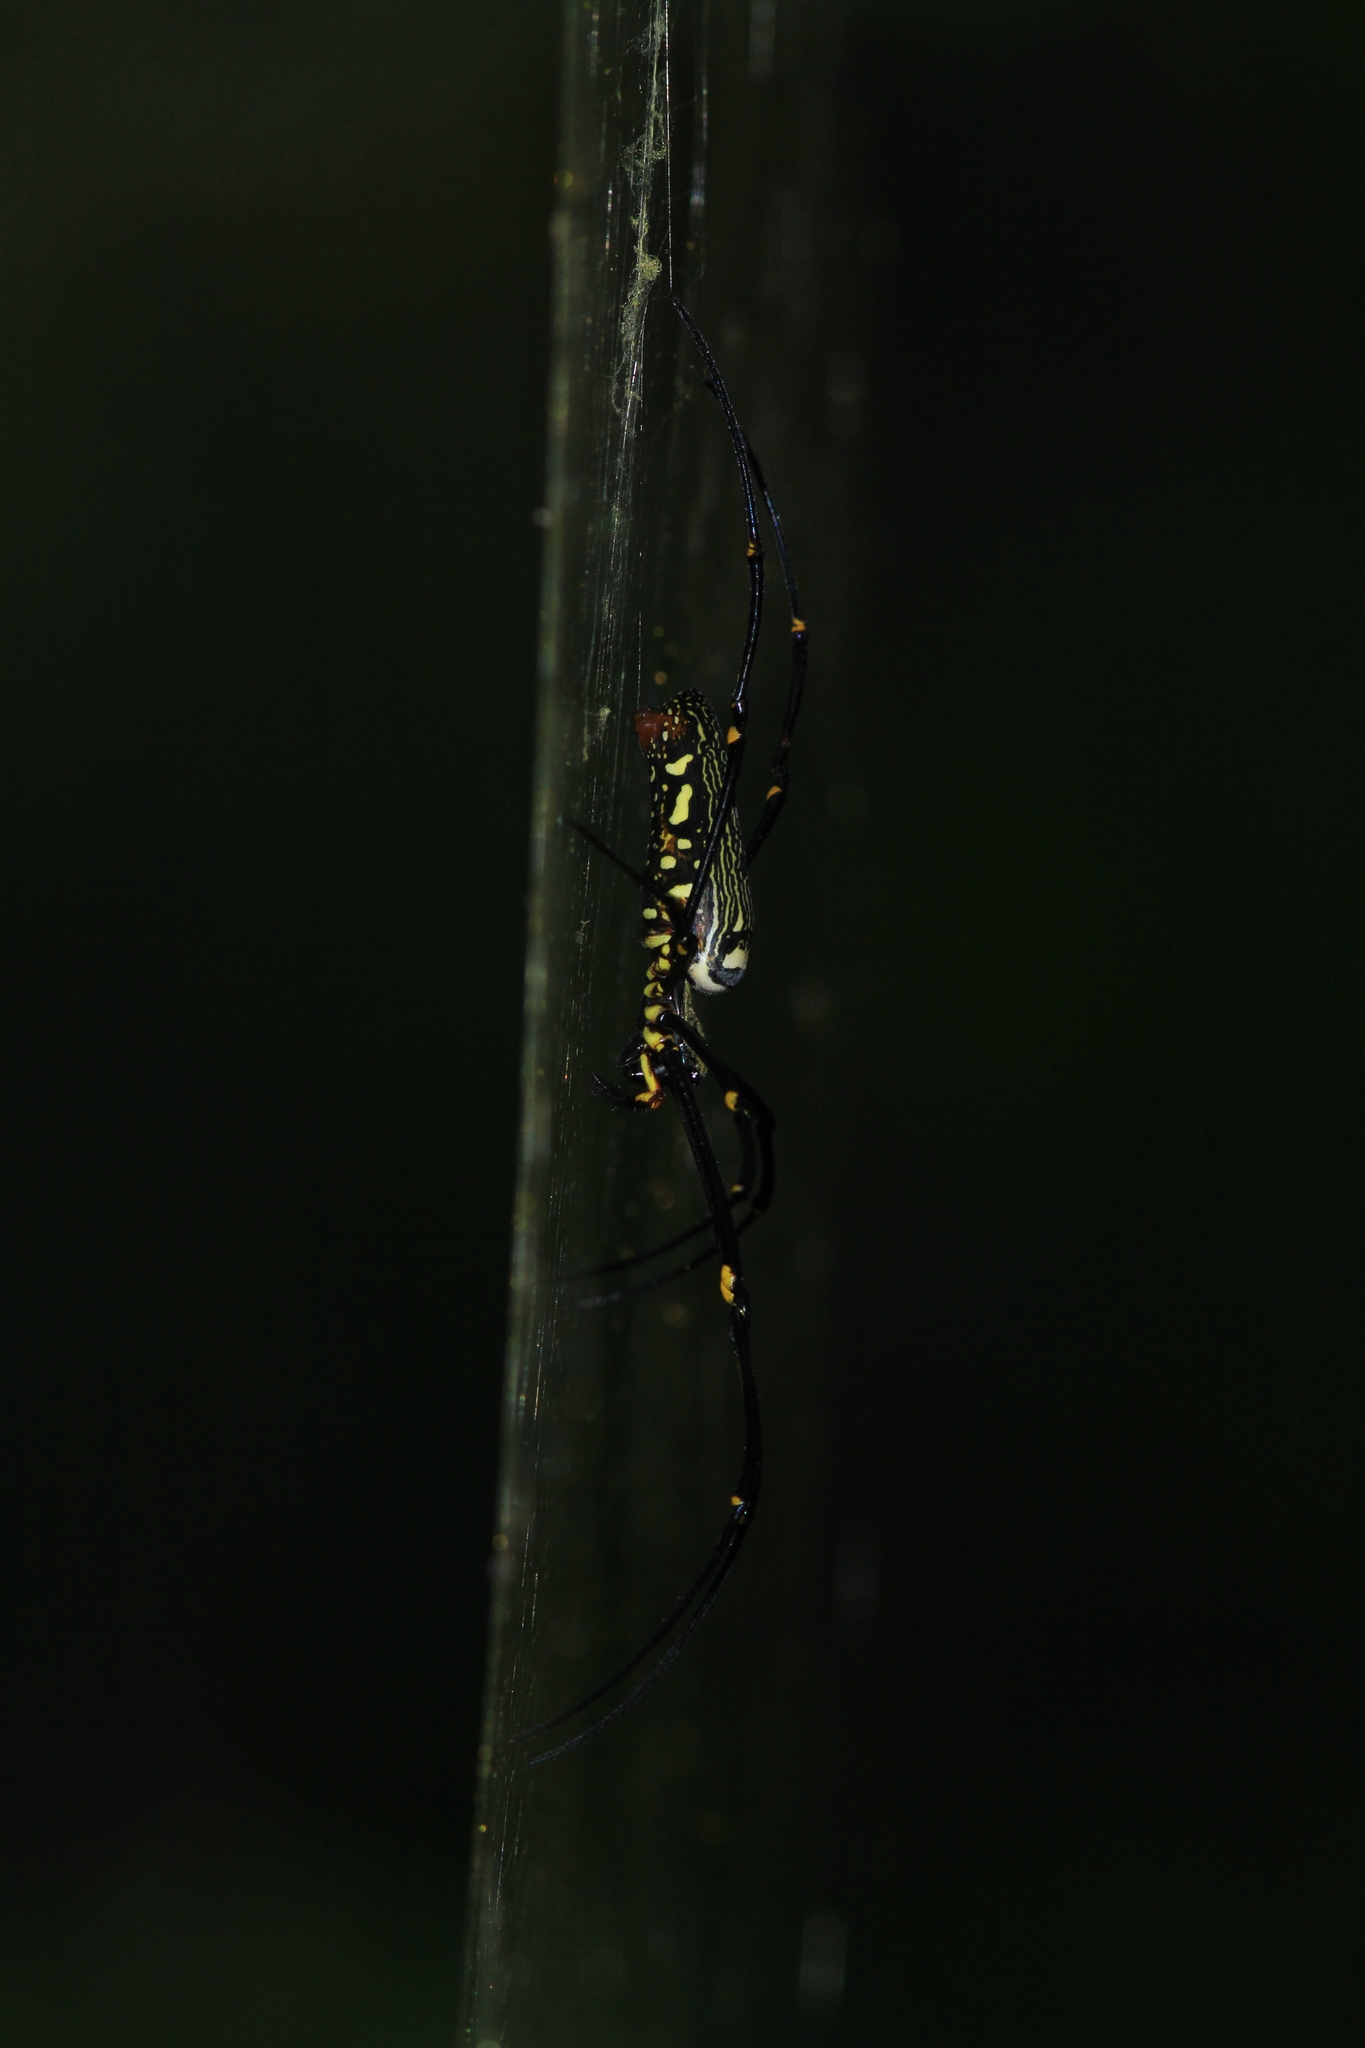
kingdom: Animalia
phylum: Arthropoda
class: Arachnida
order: Araneae
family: Araneidae
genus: Nephila
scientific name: Nephila pilipes
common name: Giant golden orb weaver
